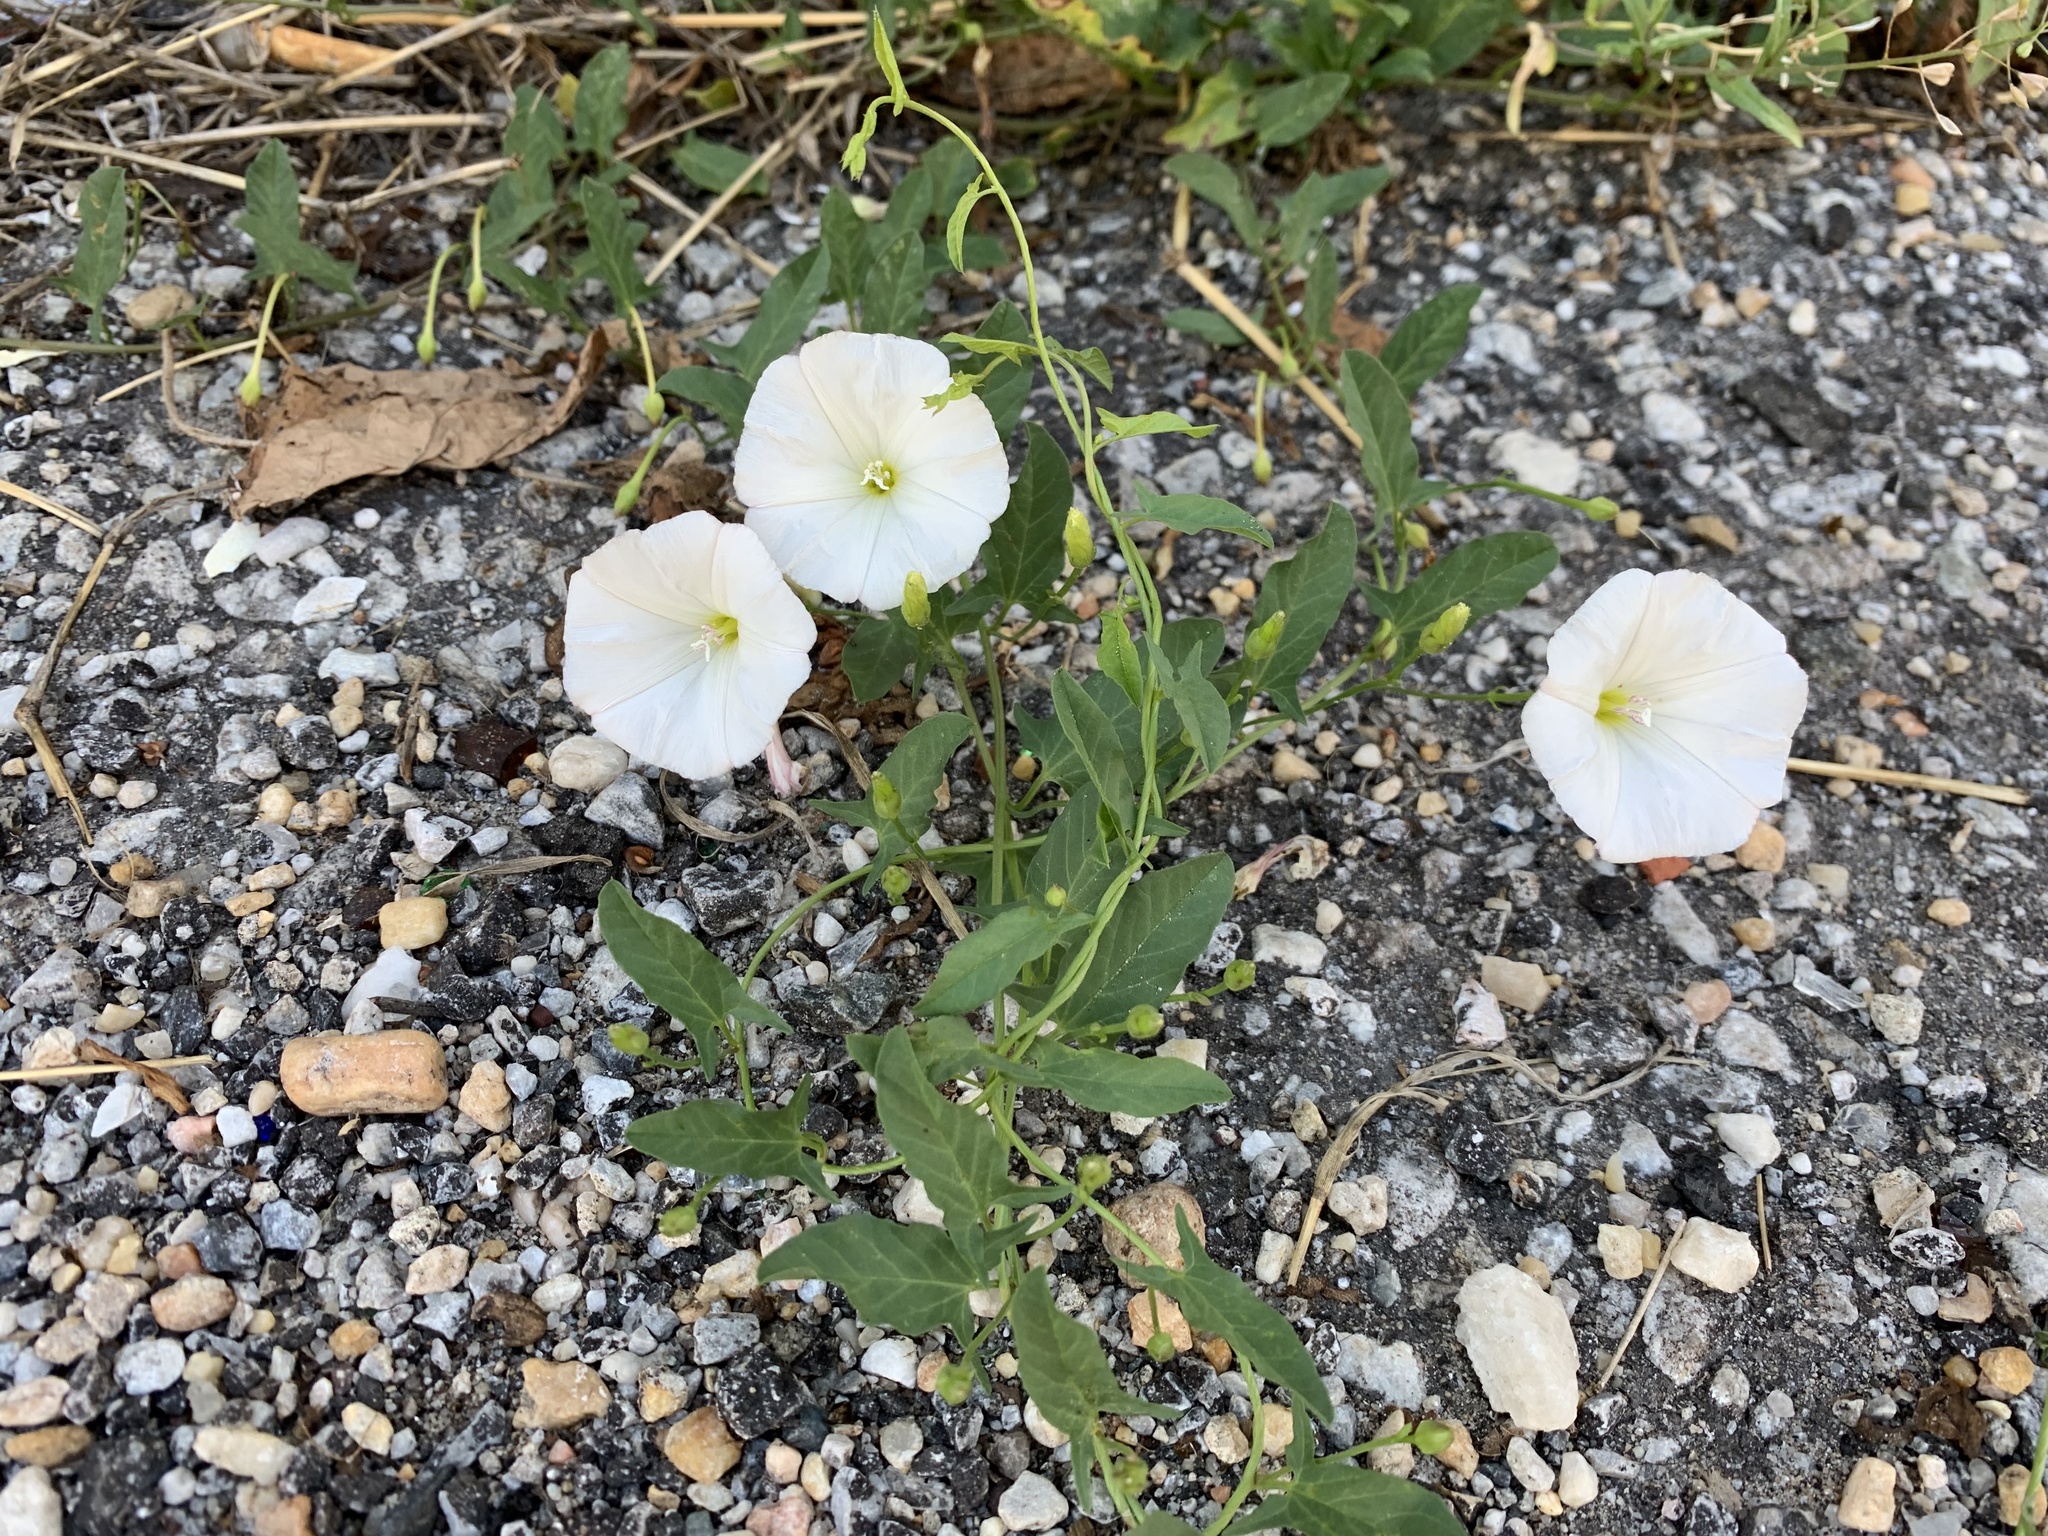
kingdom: Plantae
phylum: Tracheophyta
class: Magnoliopsida
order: Solanales
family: Convolvulaceae
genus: Convolvulus
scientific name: Convolvulus arvensis
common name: Field bindweed
